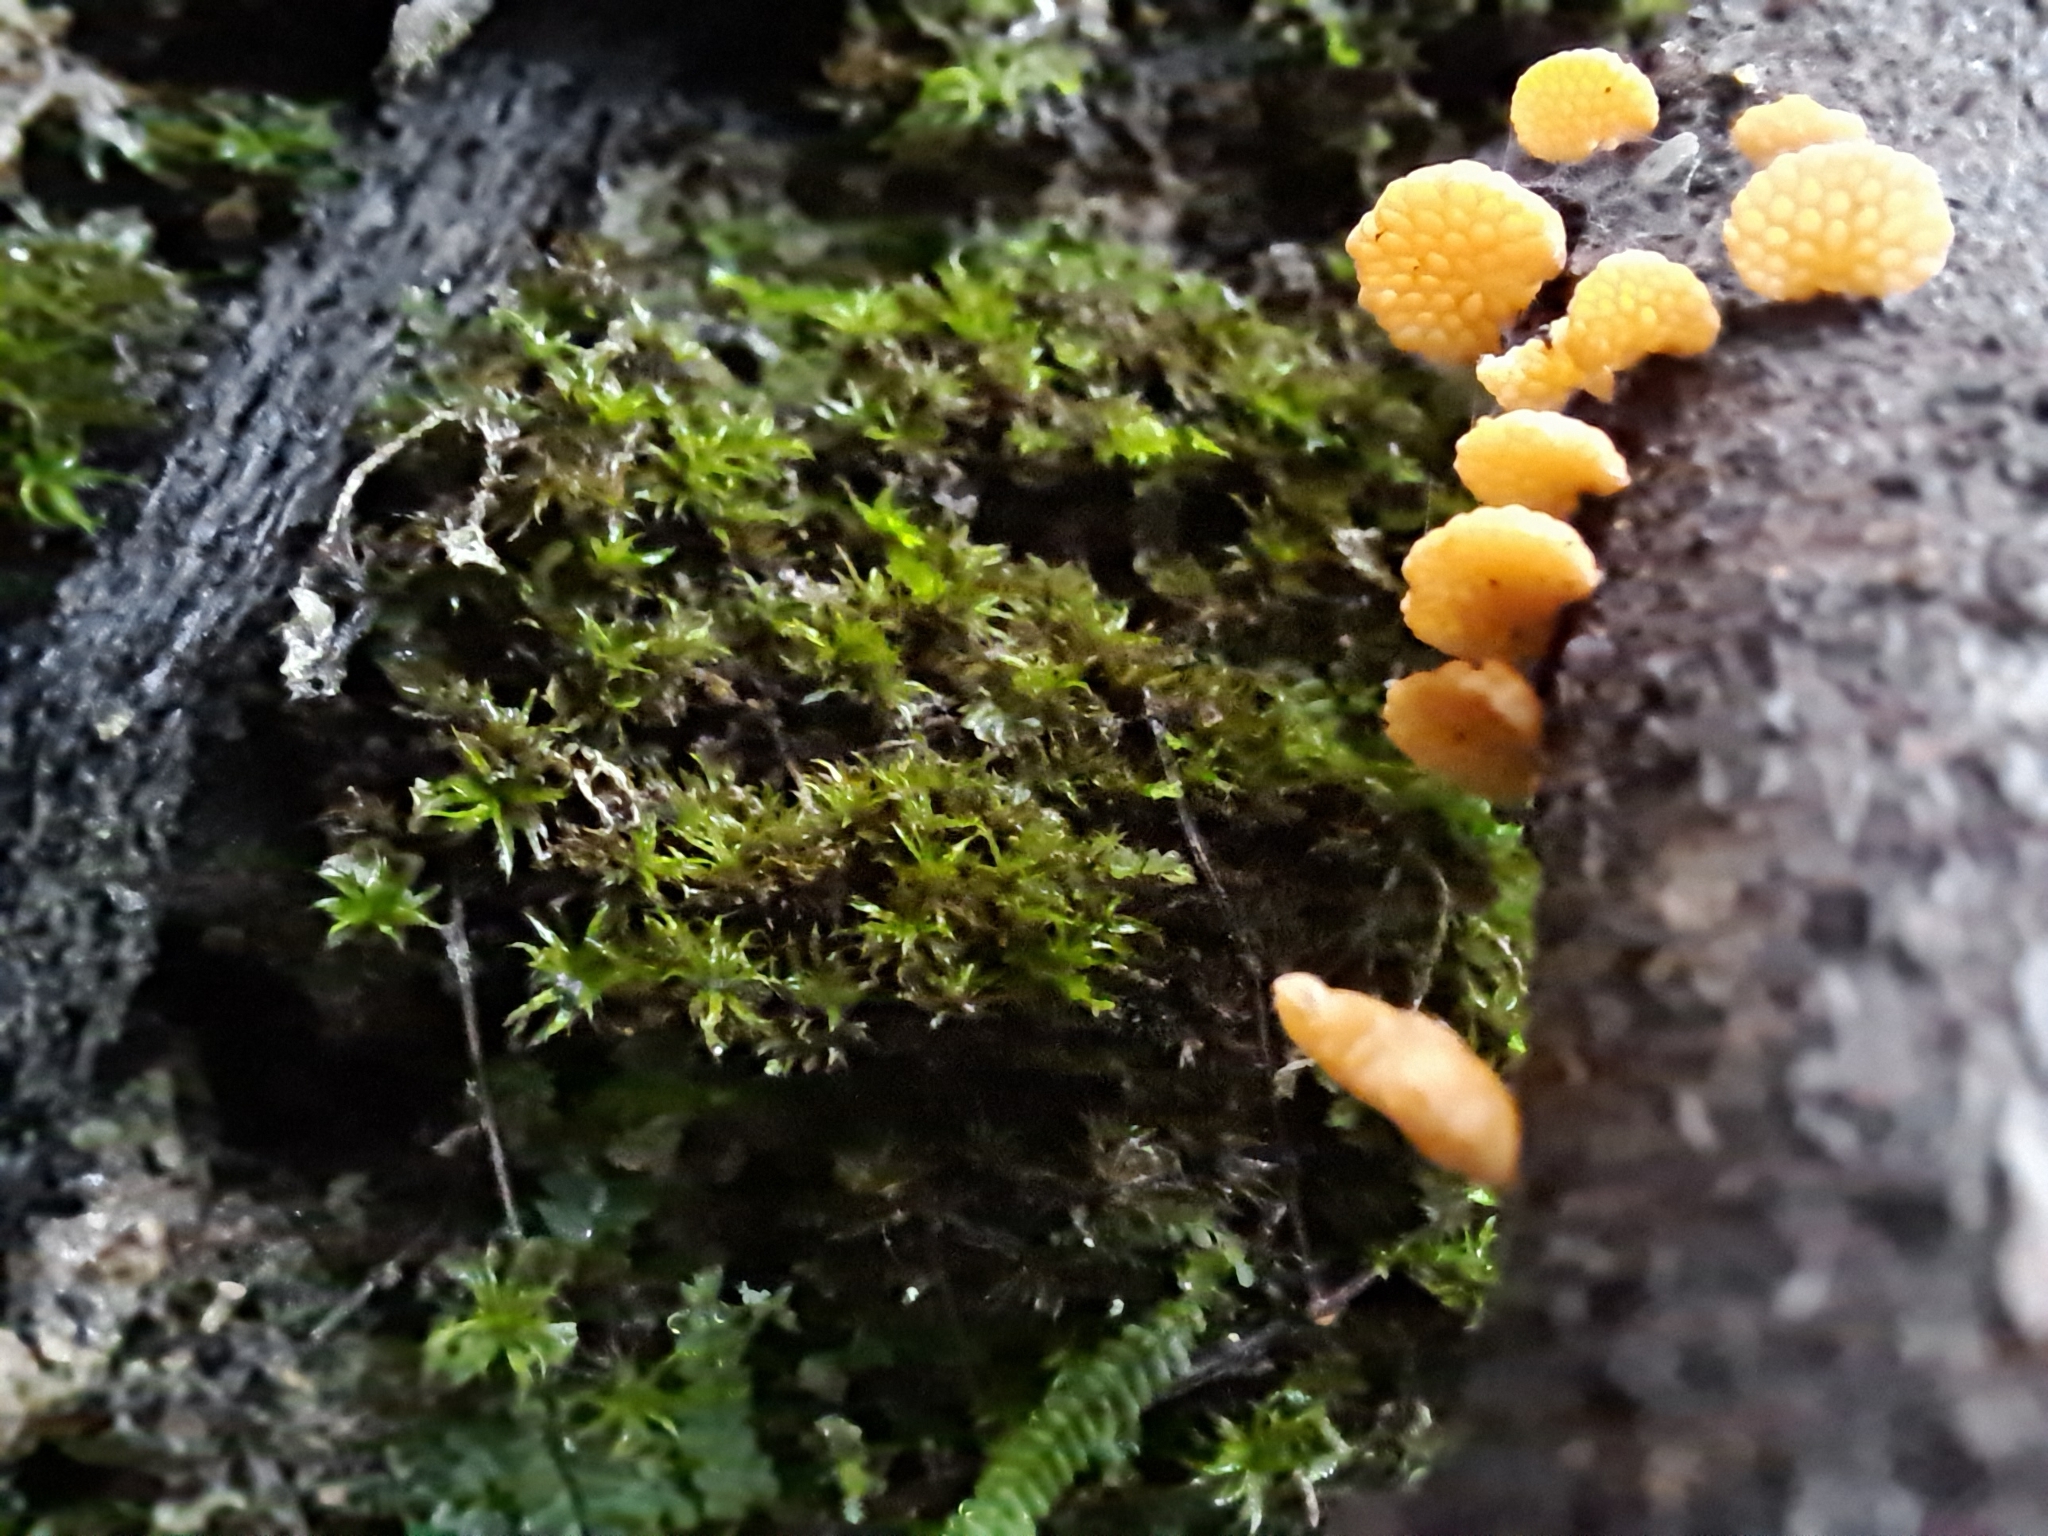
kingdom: Fungi
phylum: Basidiomycota
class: Agaricomycetes
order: Agaricales
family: Mycenaceae
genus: Favolaschia
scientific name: Favolaschia claudopus
